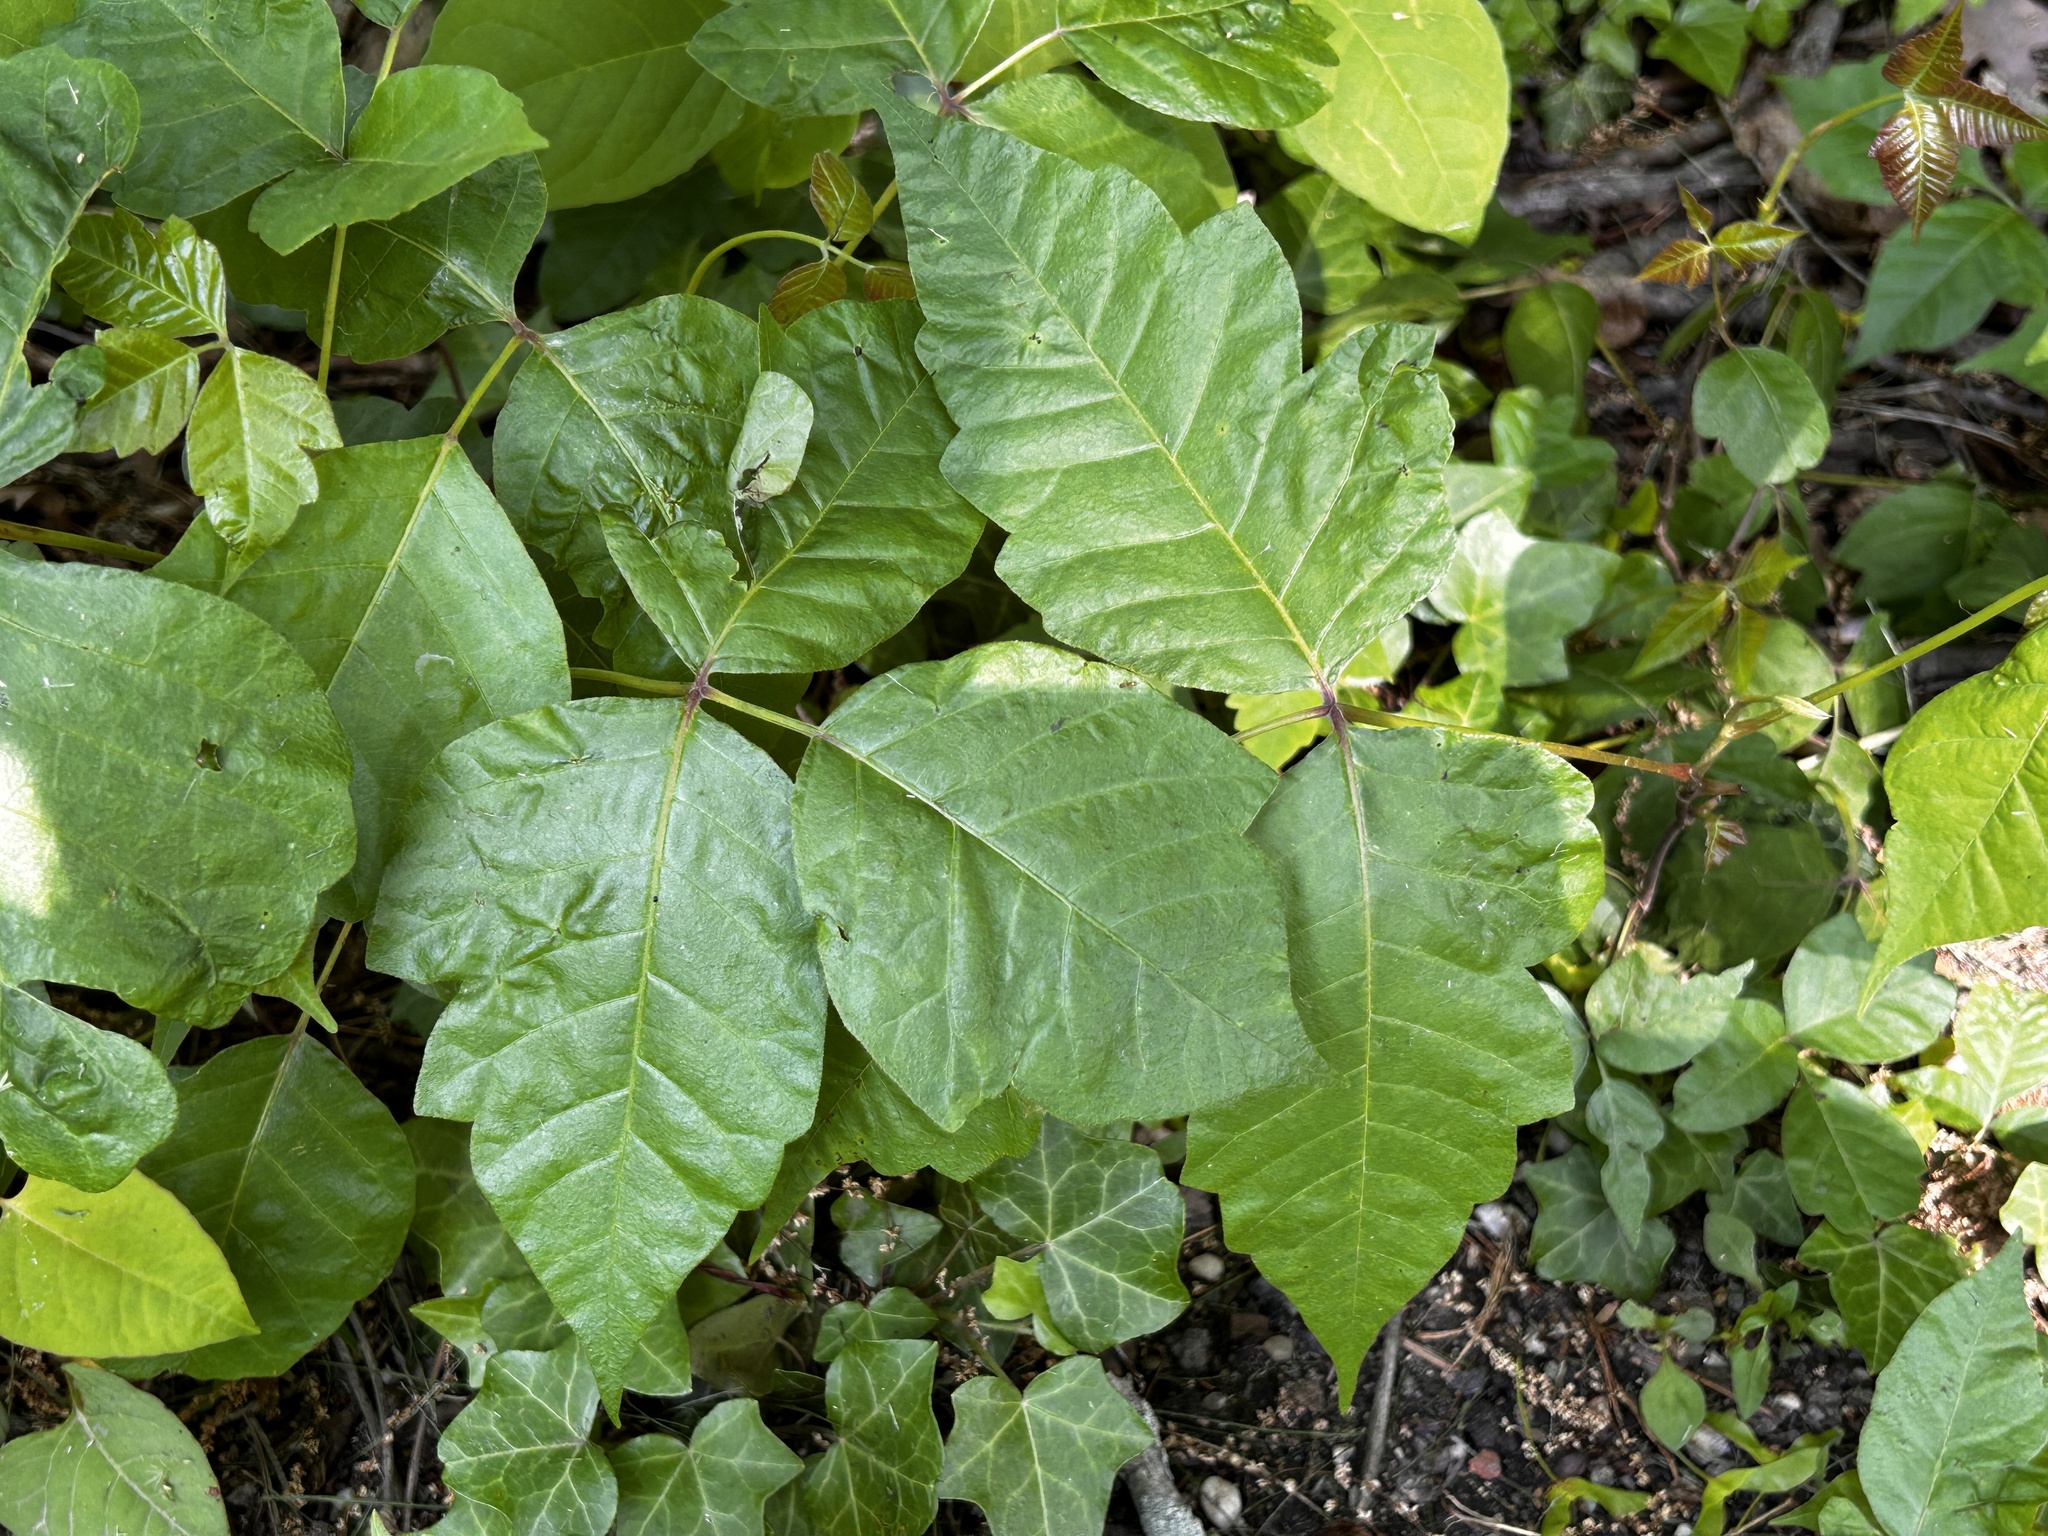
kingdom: Plantae
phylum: Tracheophyta
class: Magnoliopsida
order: Sapindales
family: Anacardiaceae
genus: Toxicodendron
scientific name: Toxicodendron radicans
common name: Poison ivy
